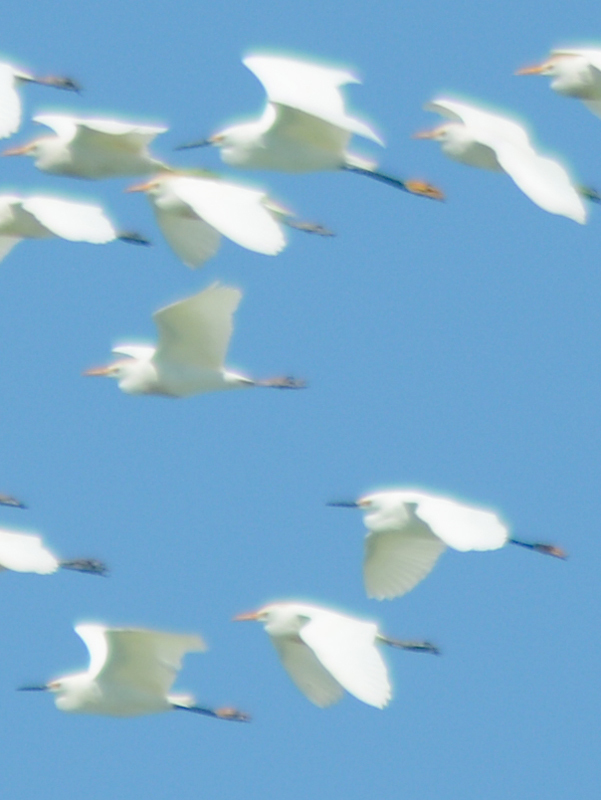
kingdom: Animalia
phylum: Chordata
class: Aves
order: Pelecaniformes
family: Ardeidae
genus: Egretta
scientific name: Egretta thula
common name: Snowy egret
